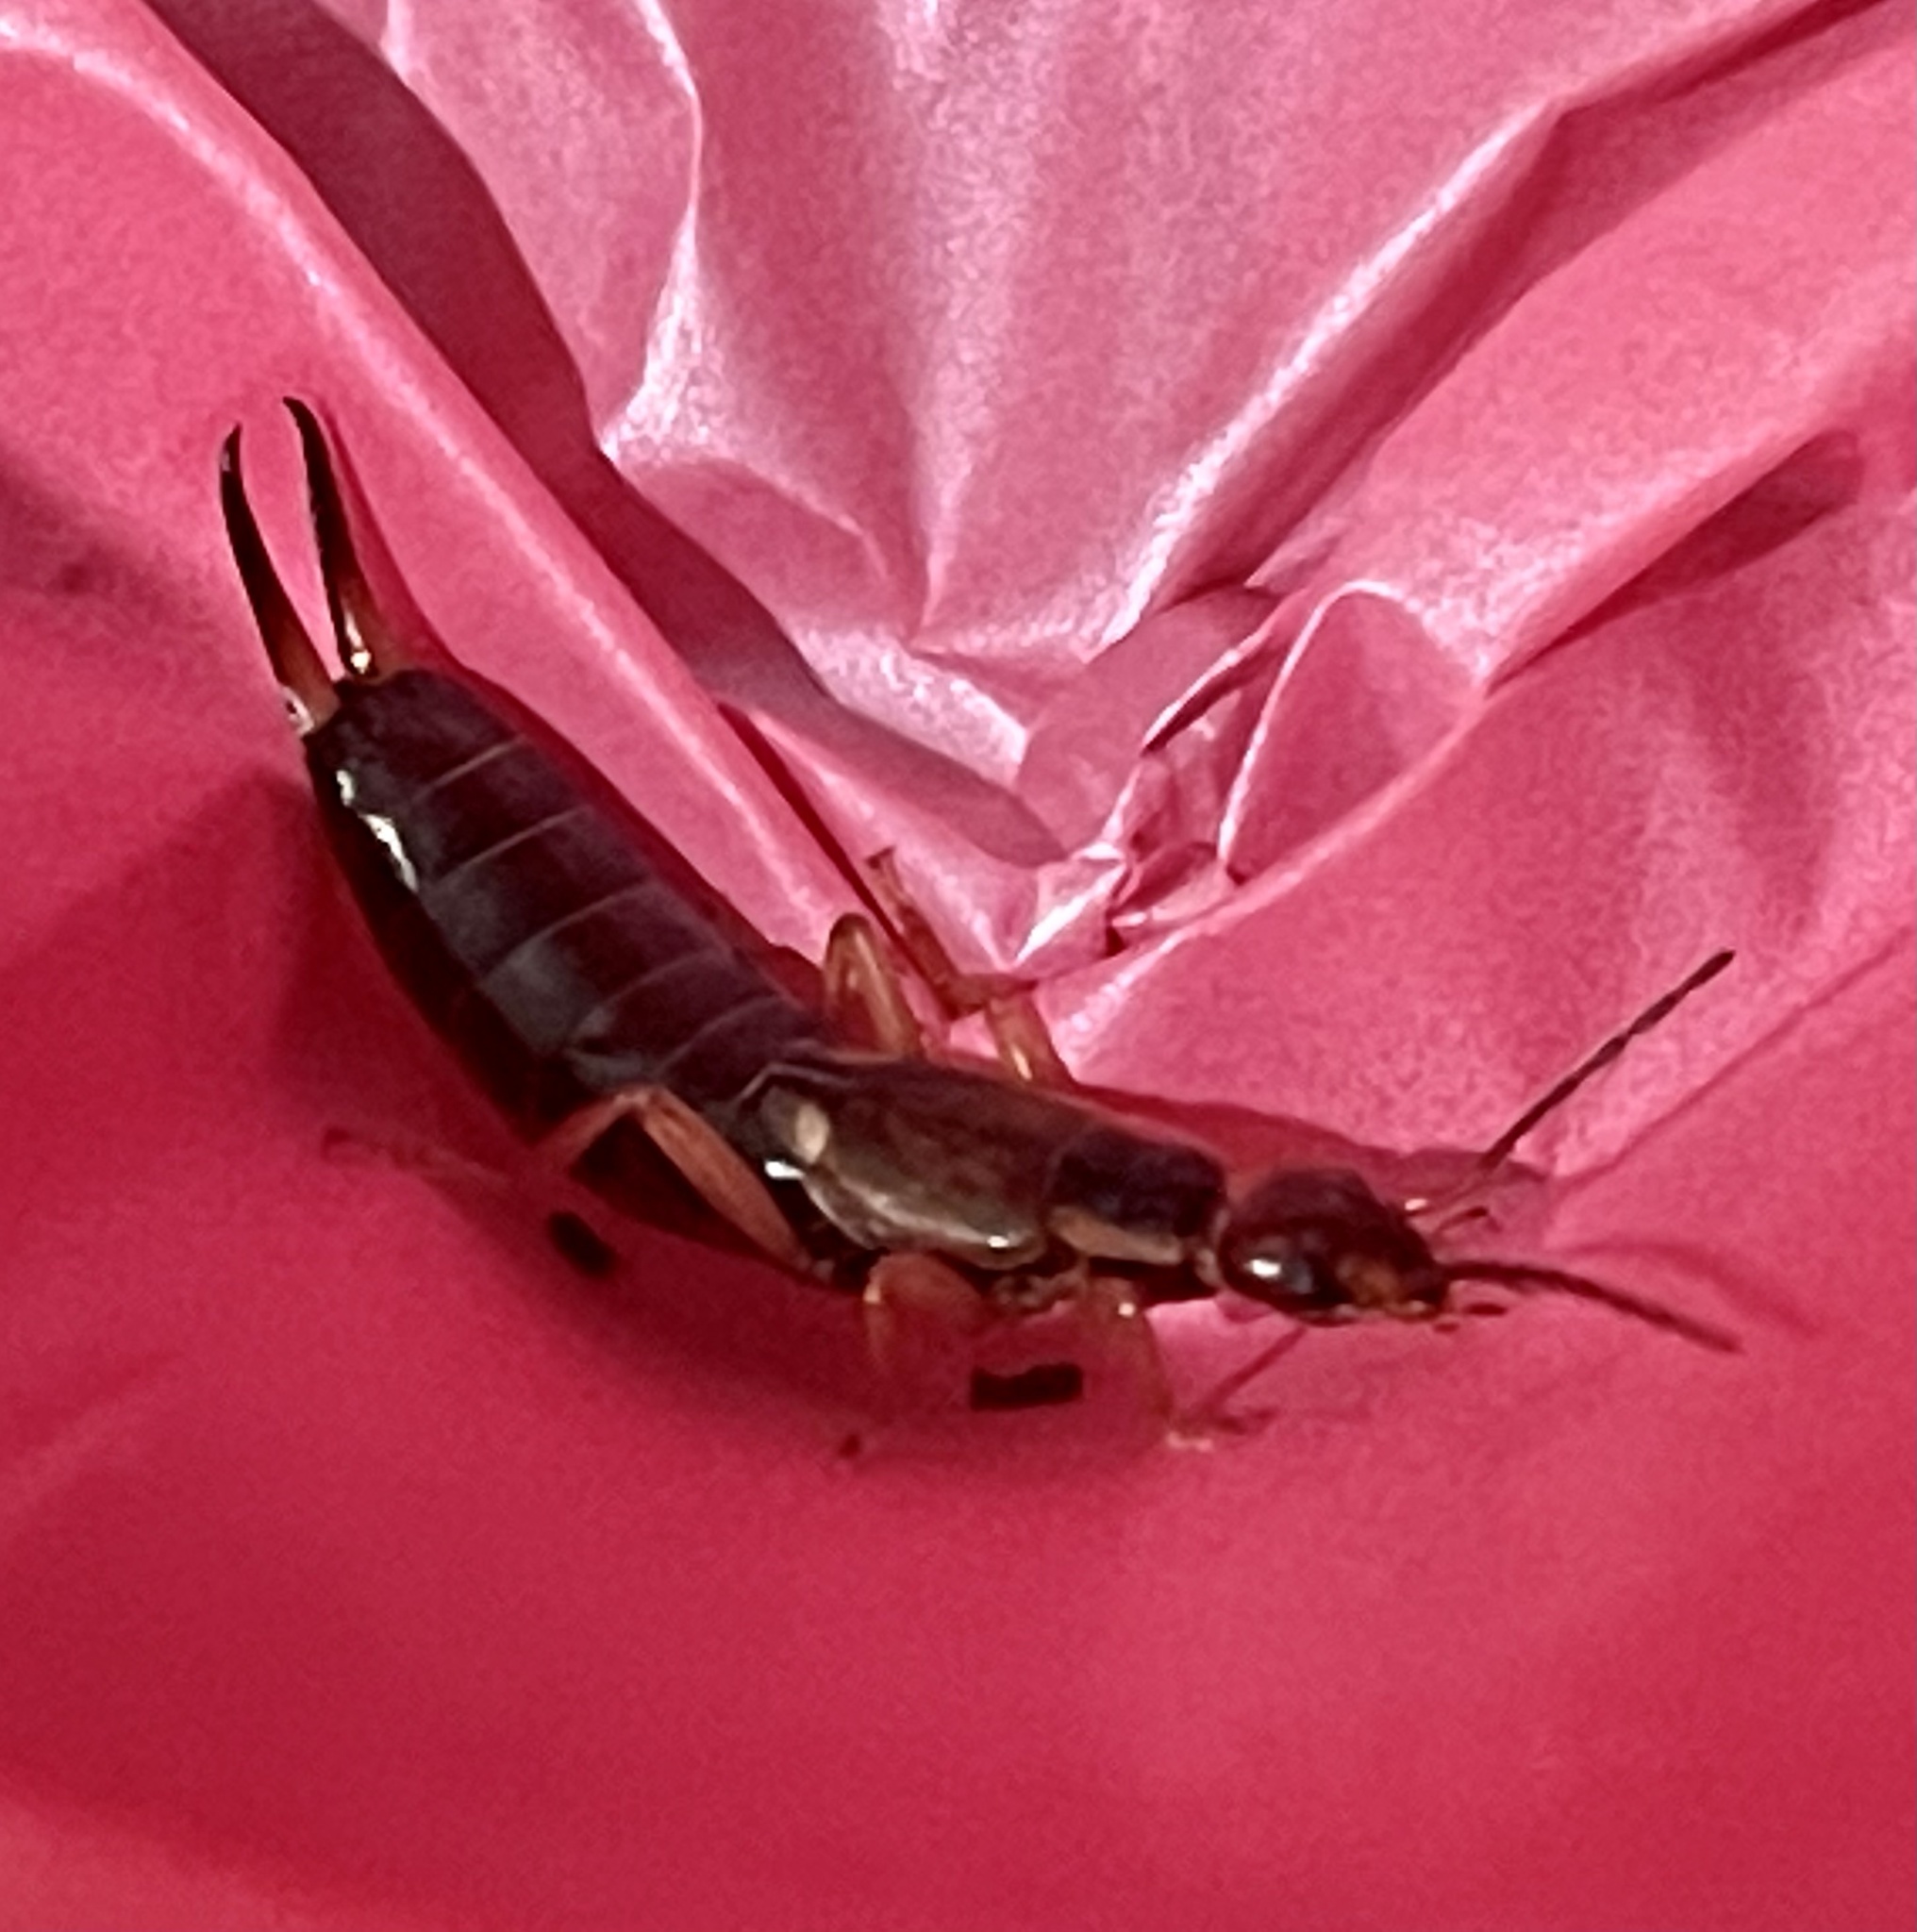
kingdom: Animalia
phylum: Arthropoda
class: Insecta
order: Dermaptera
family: Forficulidae
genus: Forficula
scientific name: Forficula
